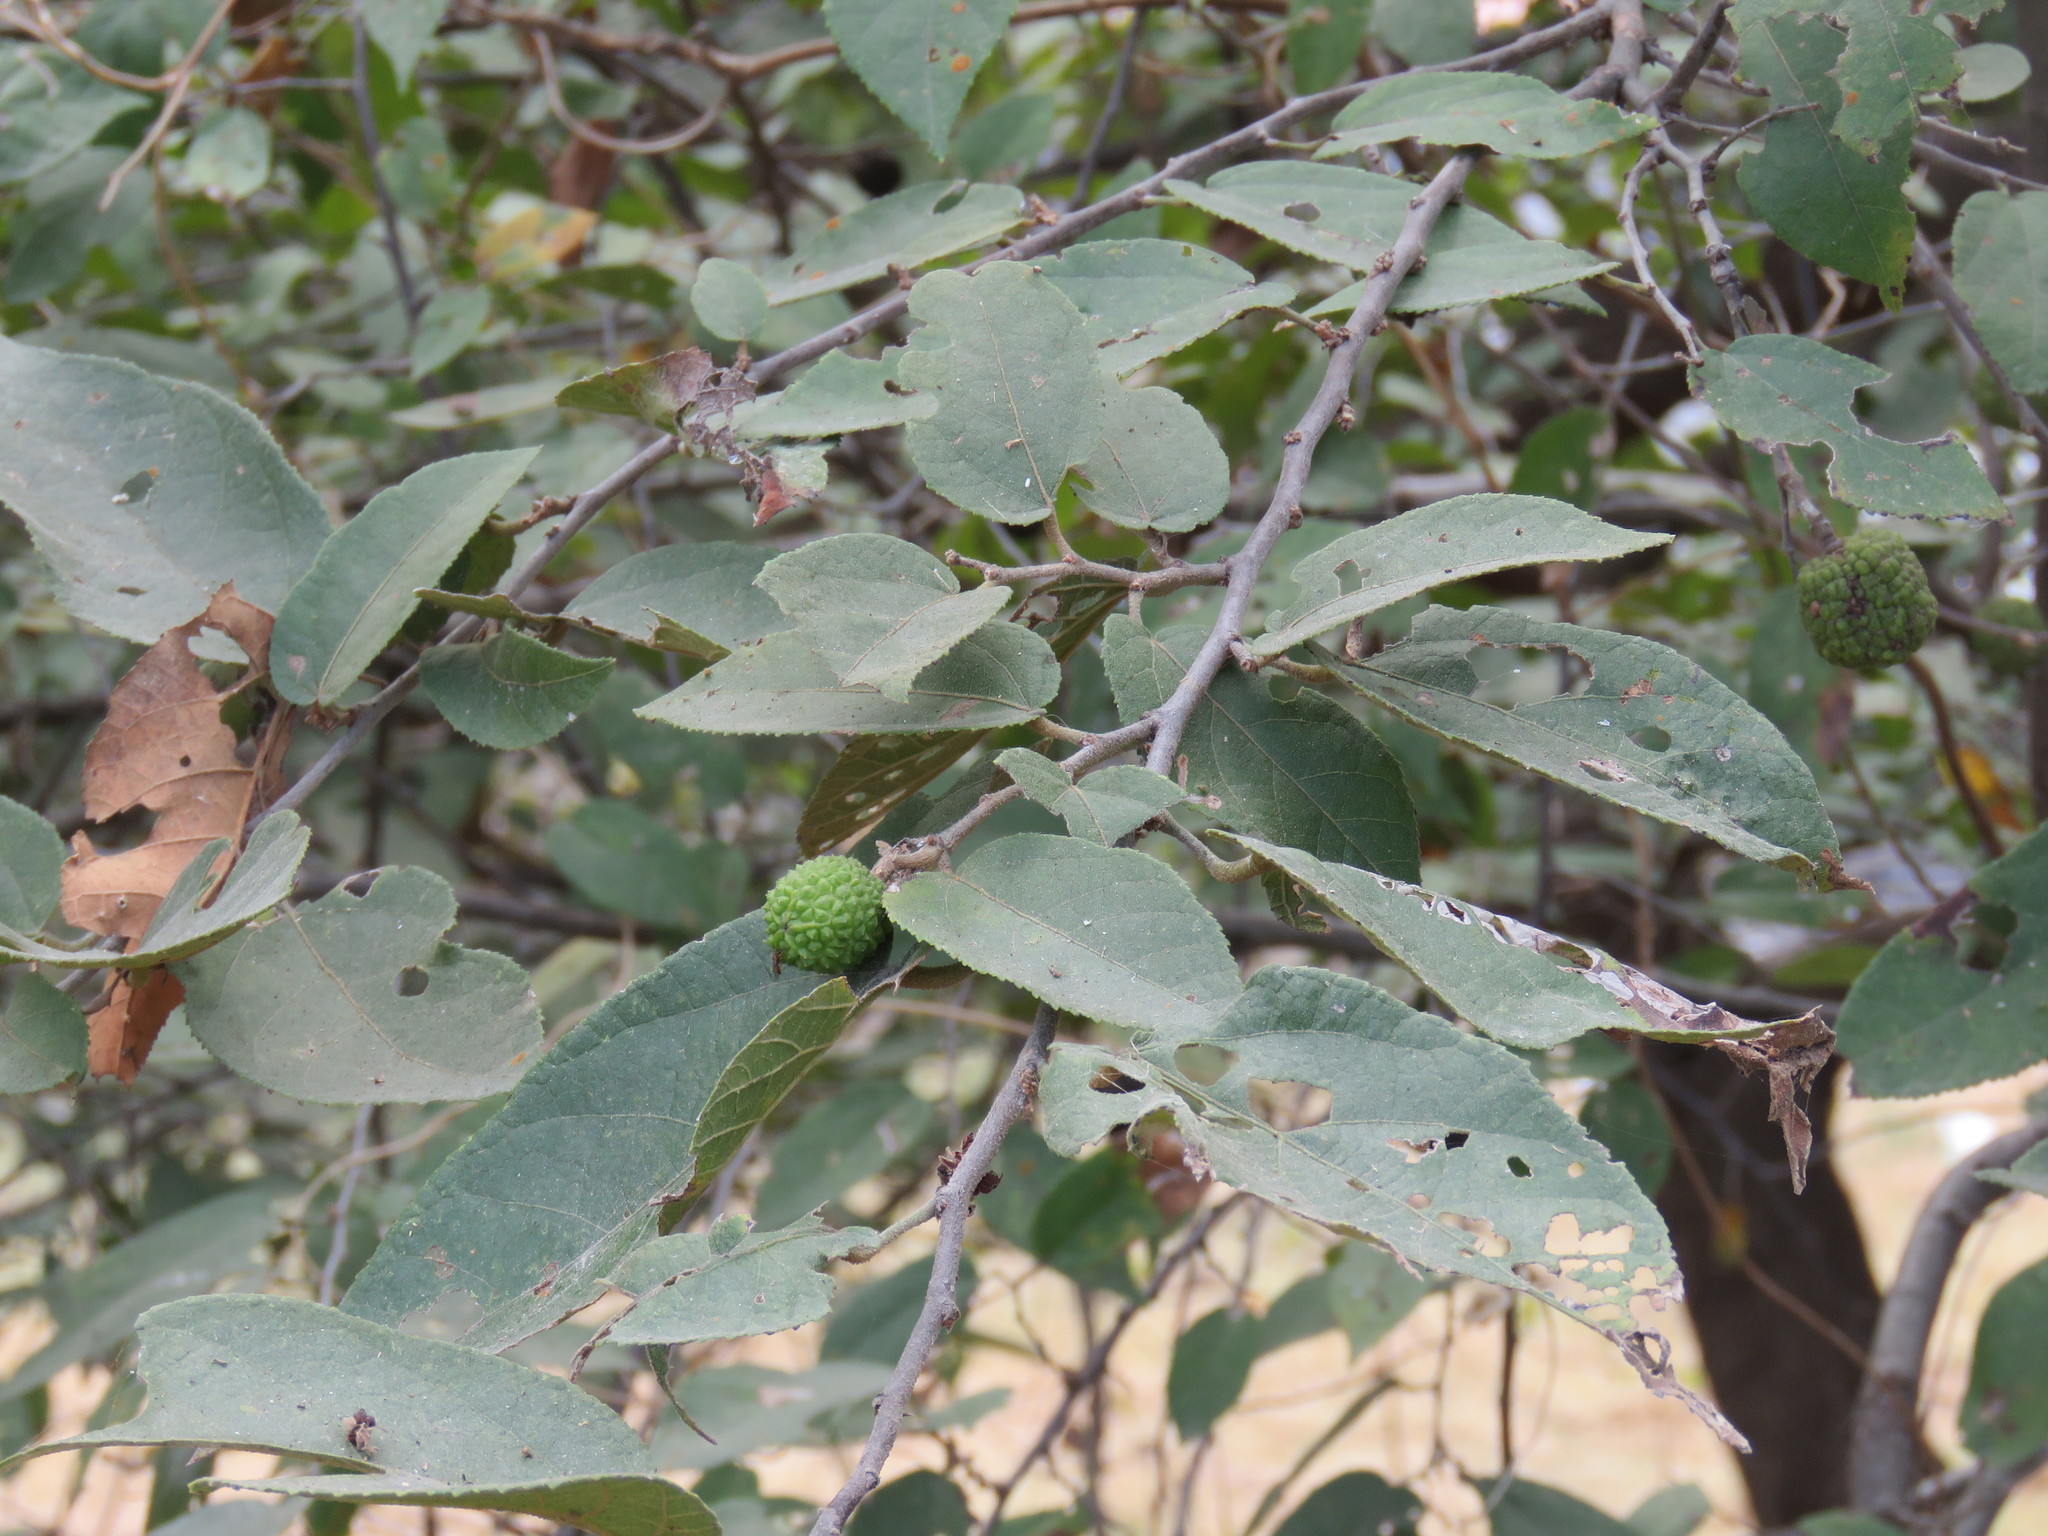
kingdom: Plantae
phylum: Tracheophyta
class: Magnoliopsida
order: Malvales
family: Malvaceae
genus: Guazuma
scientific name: Guazuma ulmifolia
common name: Bastard-cedar
